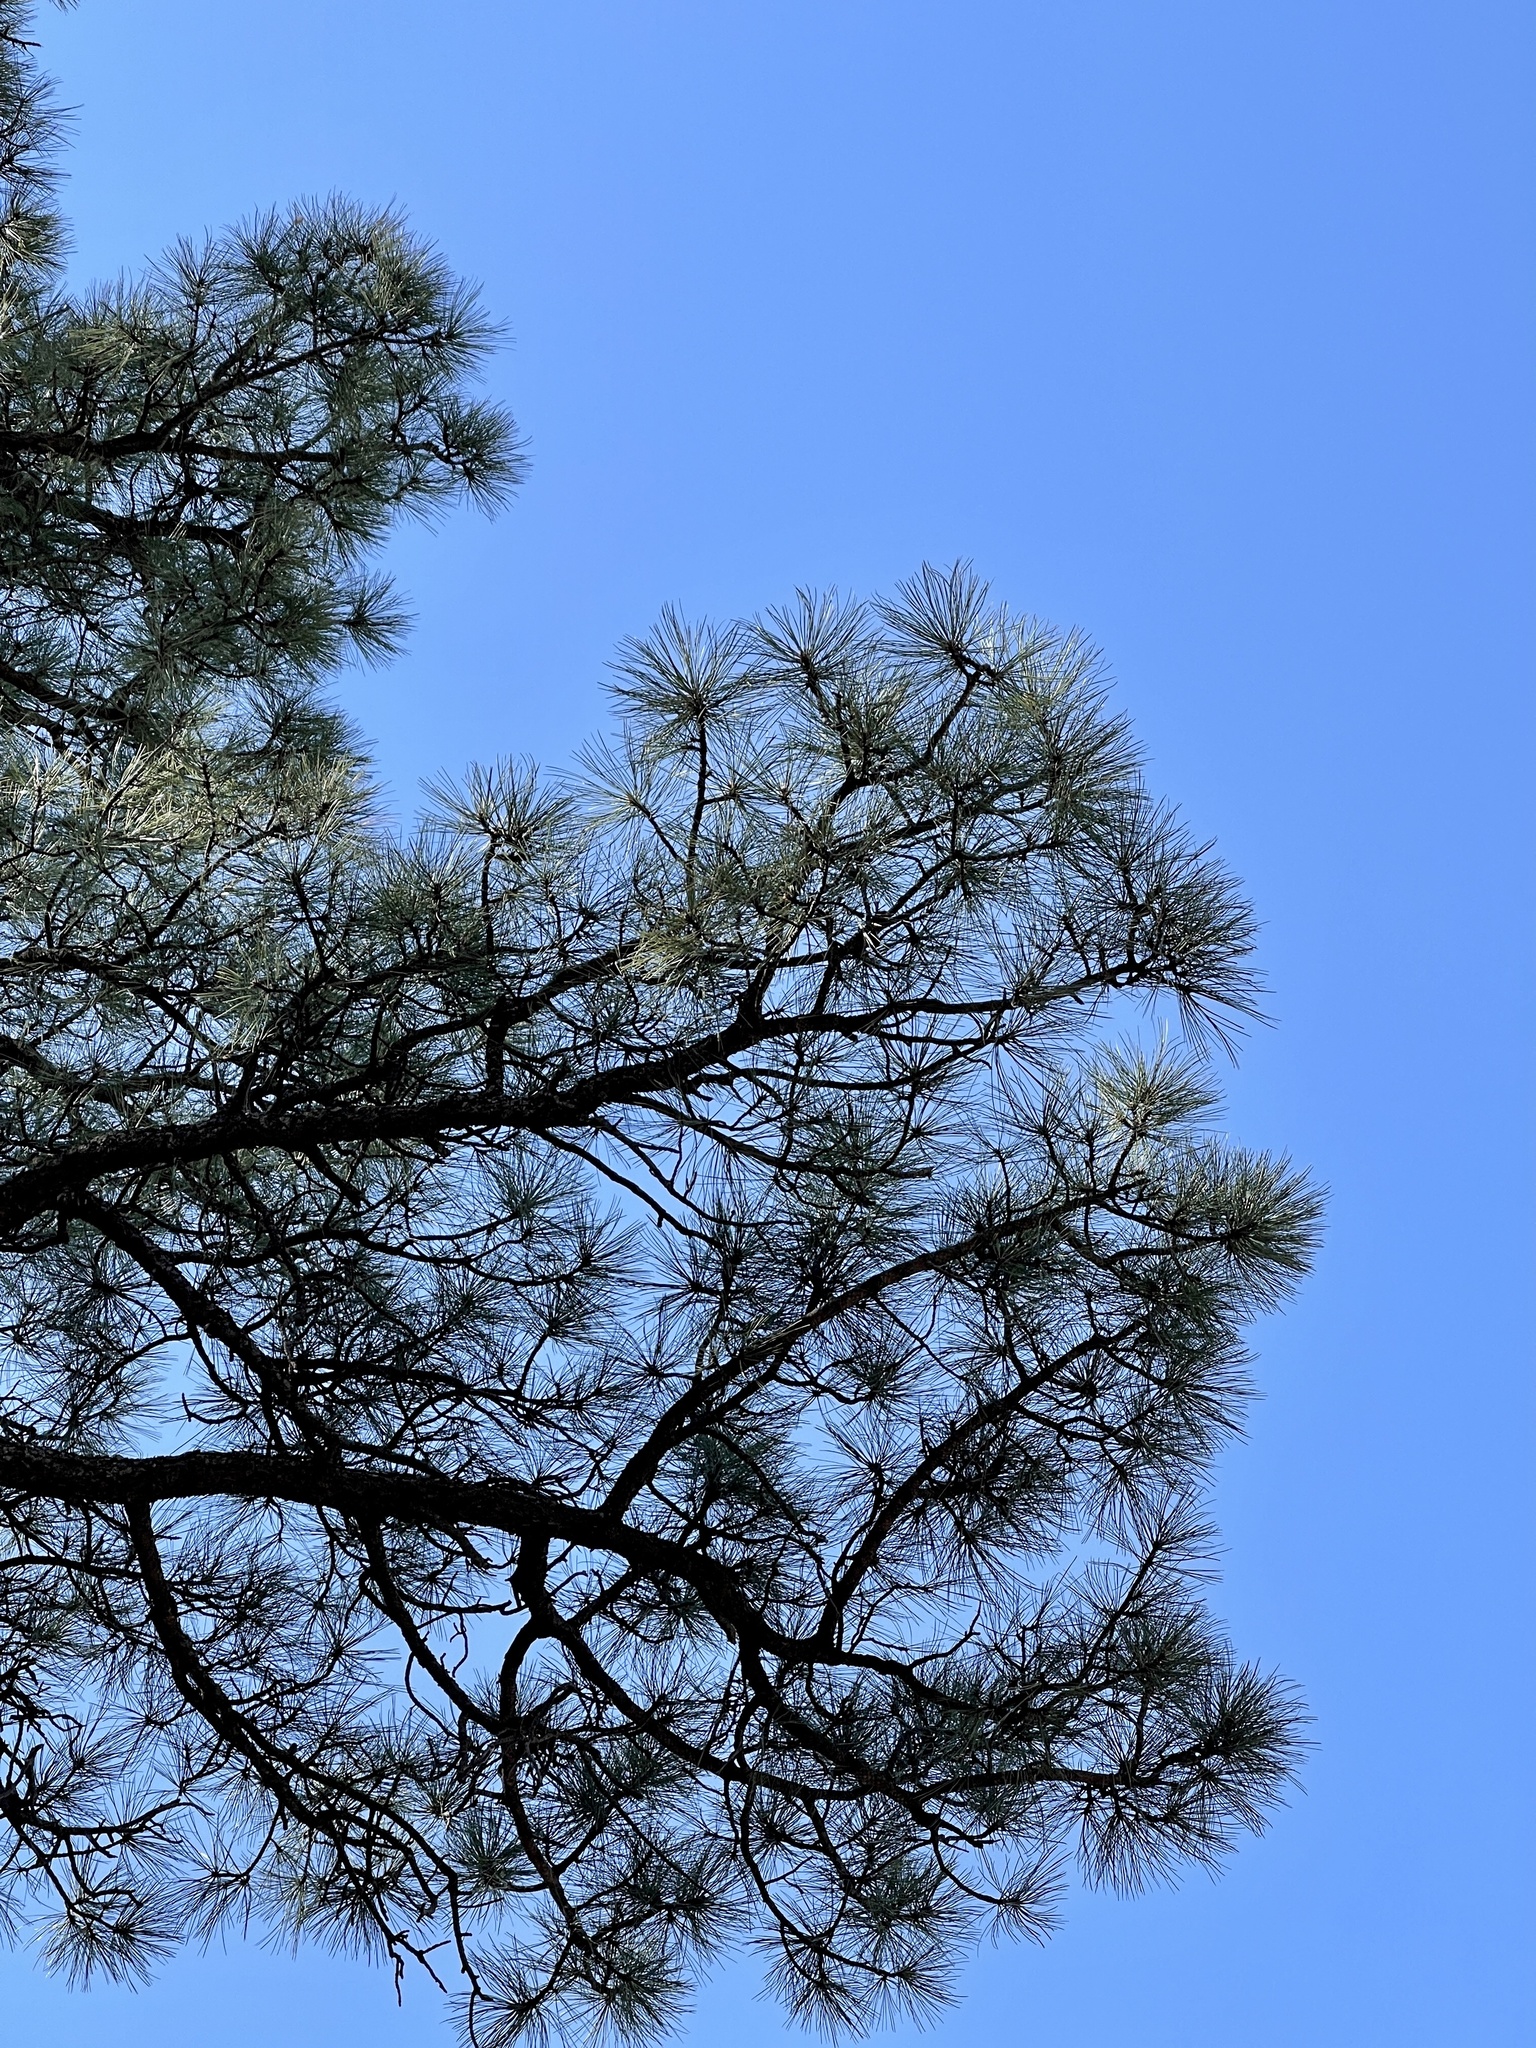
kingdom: Plantae
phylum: Tracheophyta
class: Pinopsida
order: Pinales
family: Pinaceae
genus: Pinus
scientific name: Pinus ponderosa
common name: Western yellow-pine
